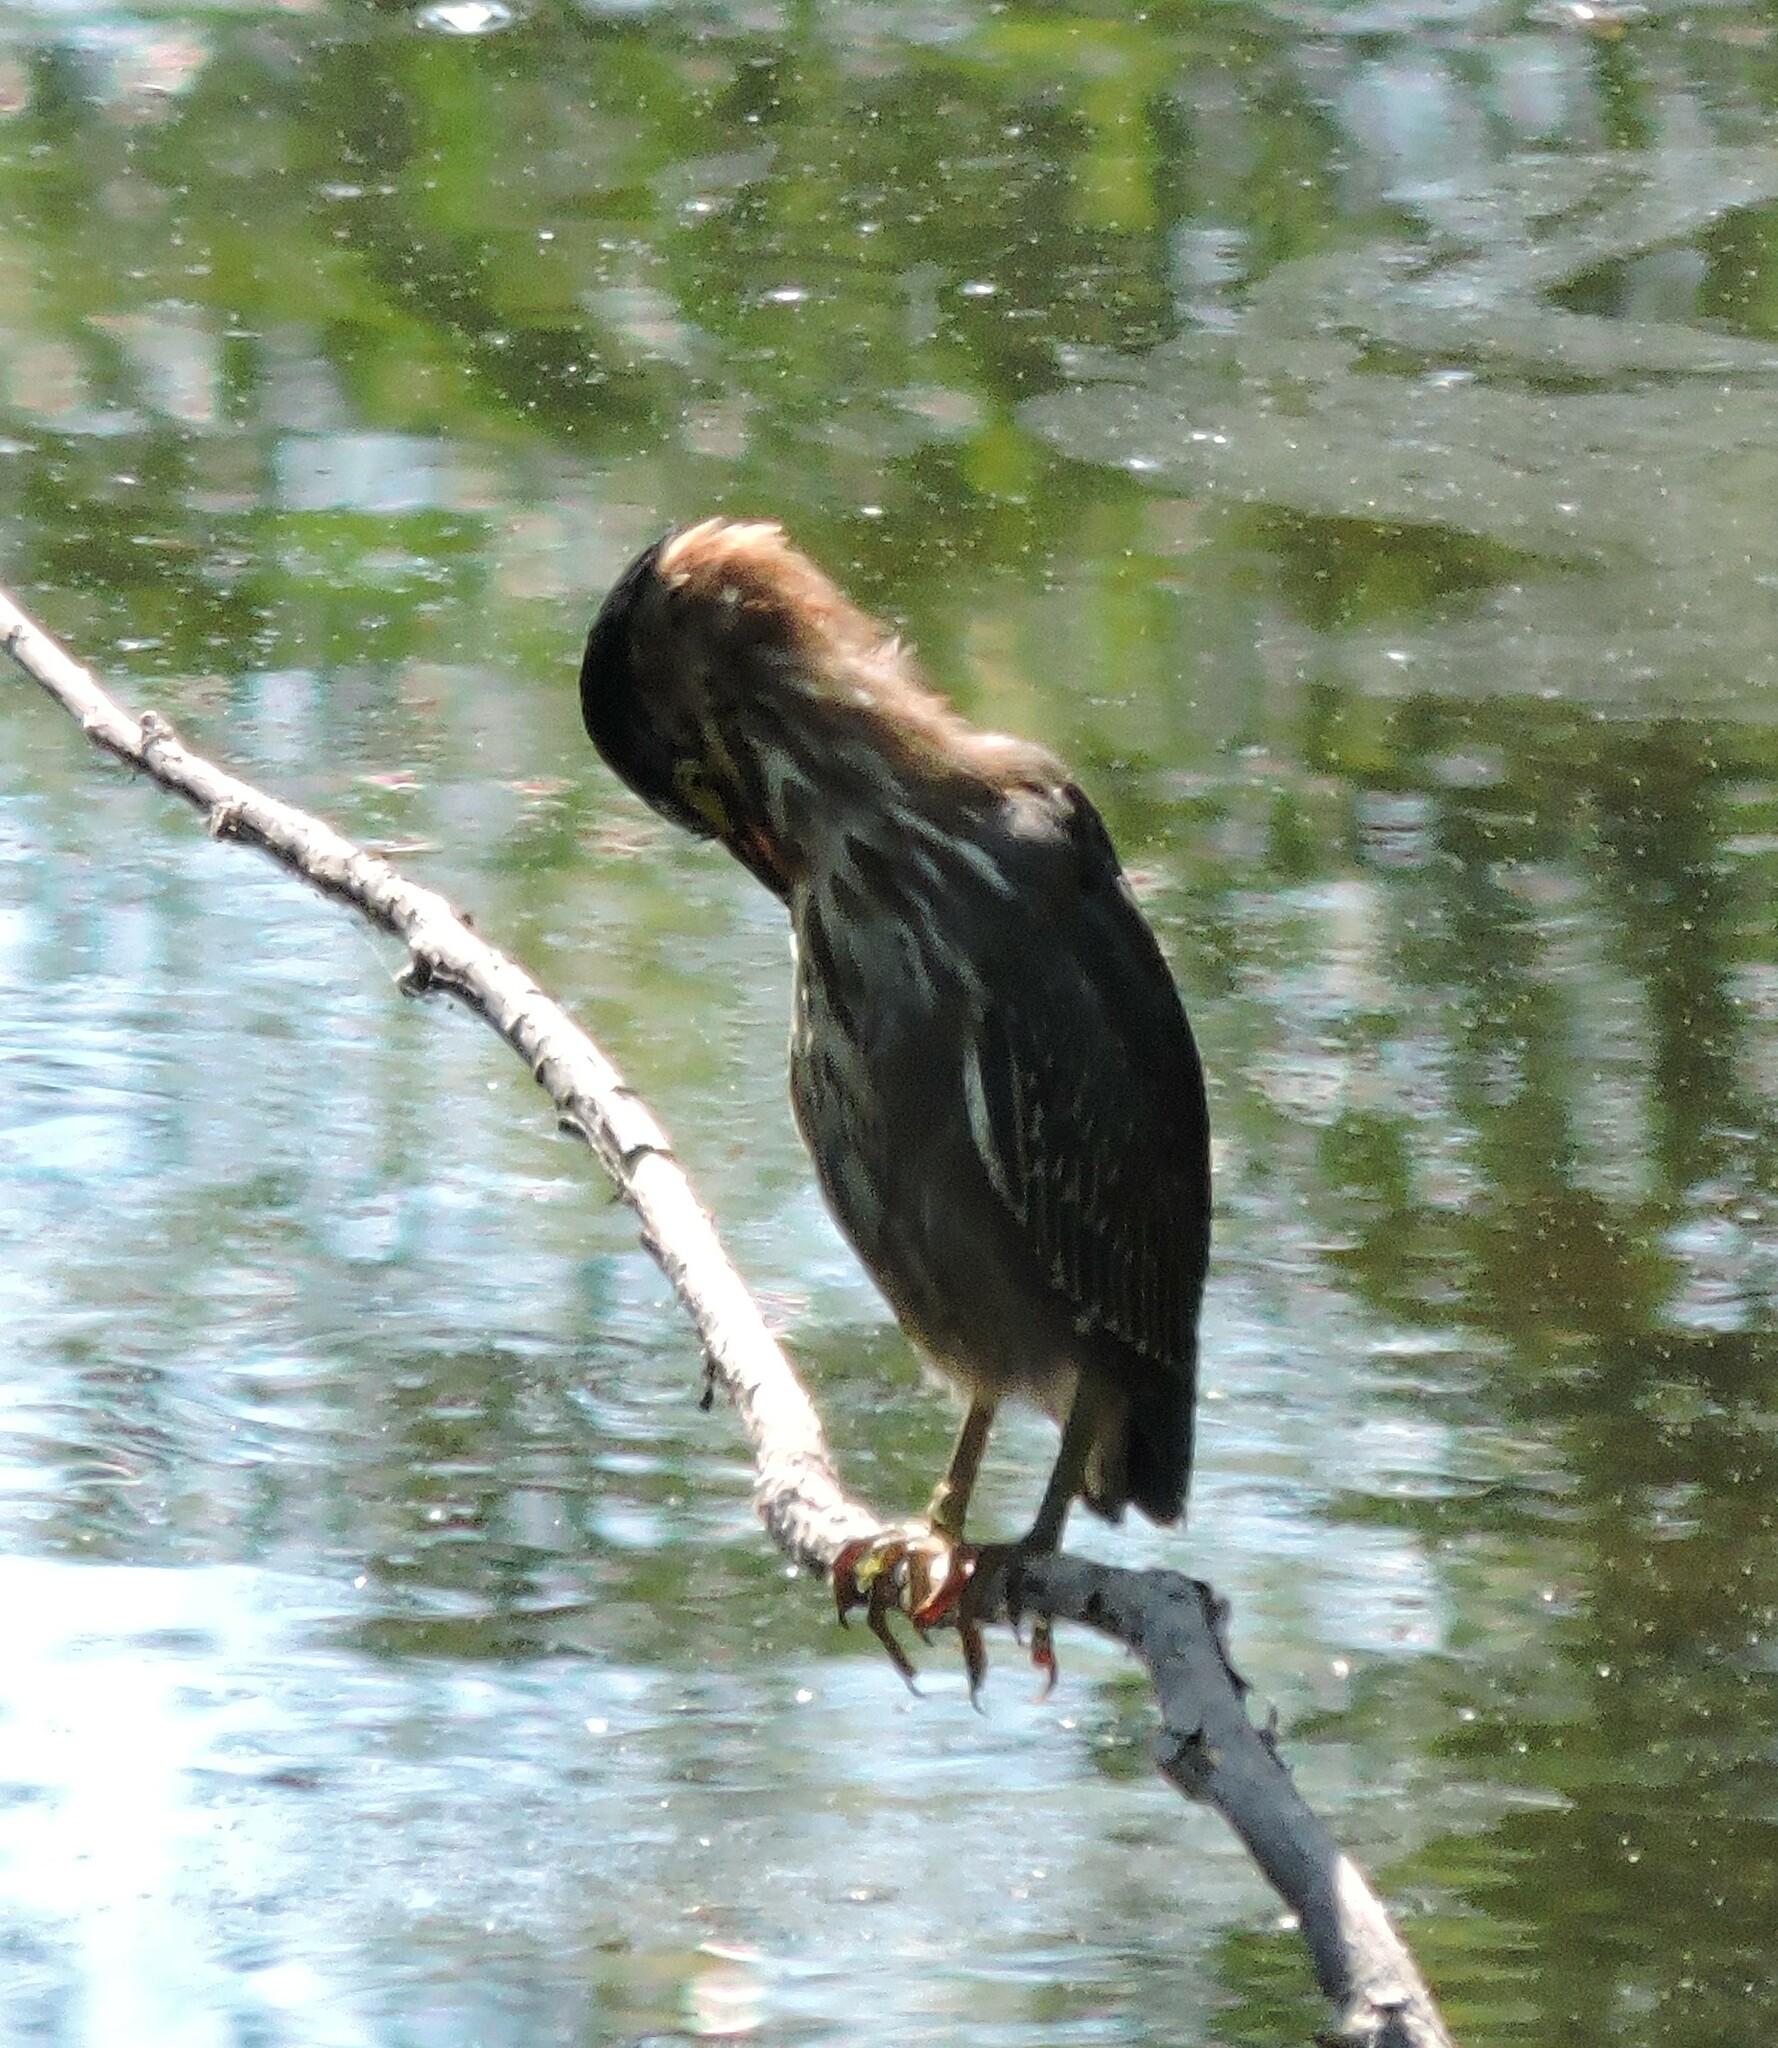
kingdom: Animalia
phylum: Chordata
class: Aves
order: Pelecaniformes
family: Ardeidae
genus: Butorides
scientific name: Butorides virescens
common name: Green heron
